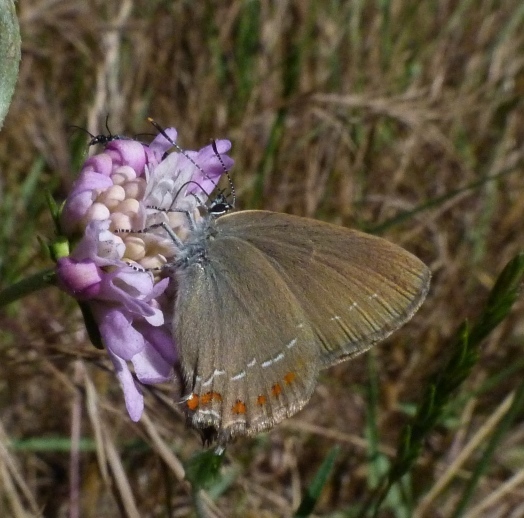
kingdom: Animalia
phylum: Arthropoda
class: Insecta
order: Lepidoptera
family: Lycaenidae
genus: Fixsenia
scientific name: Fixsenia esculi
